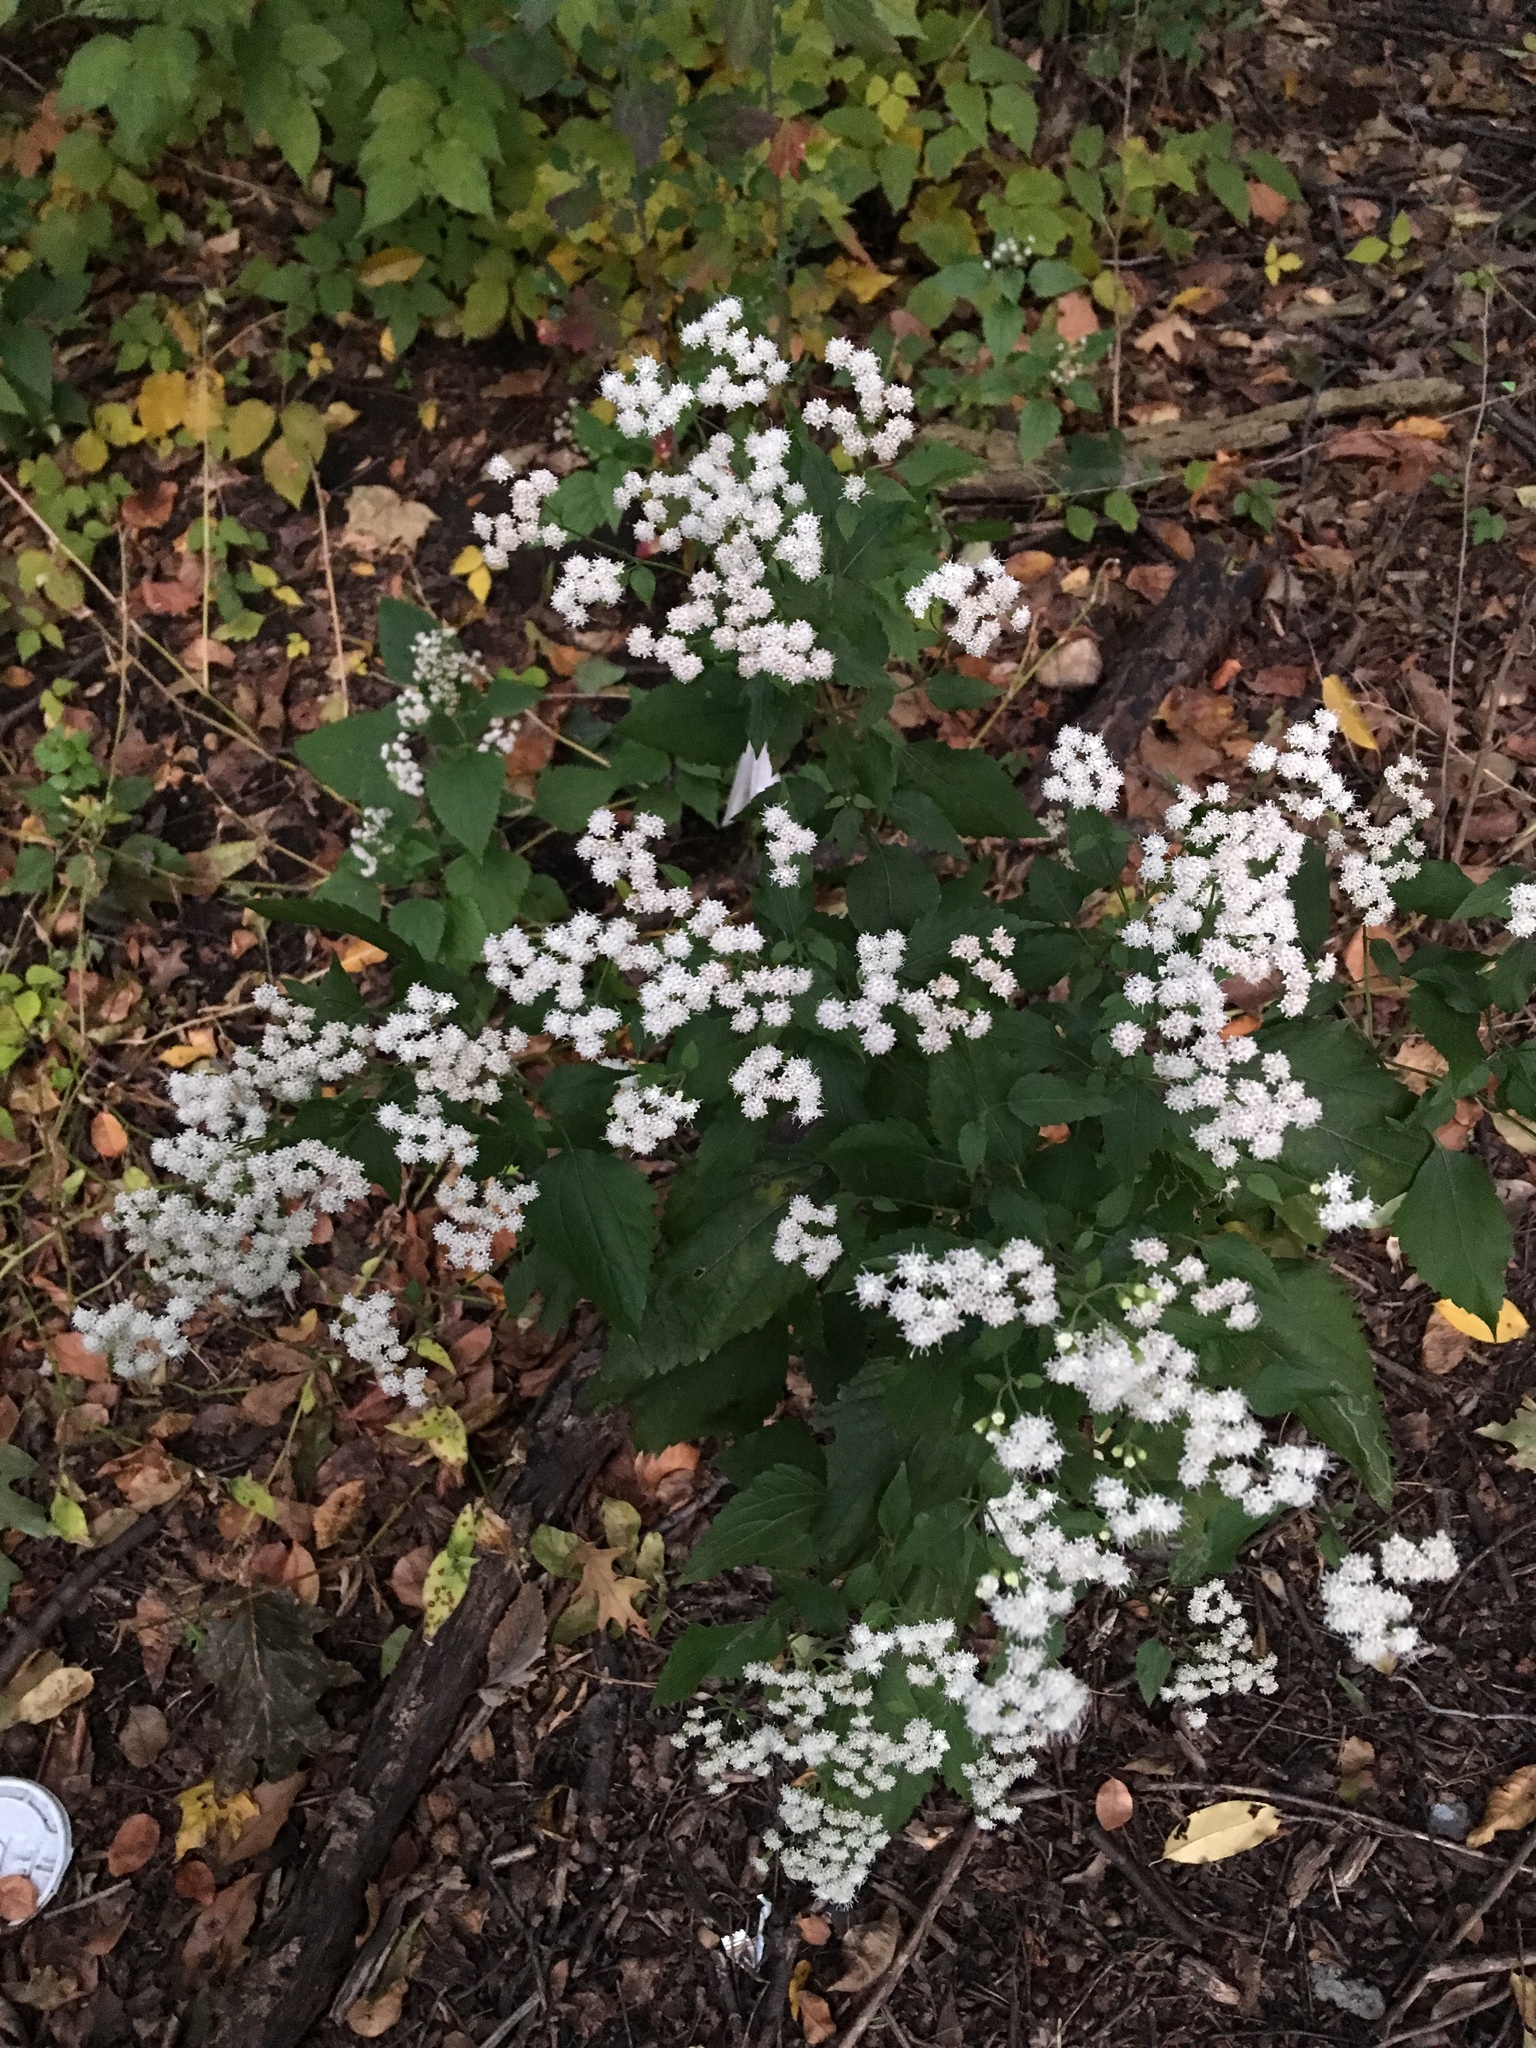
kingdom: Plantae
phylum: Tracheophyta
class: Magnoliopsida
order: Asterales
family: Asteraceae
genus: Ageratina
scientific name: Ageratina altissima
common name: White snakeroot
